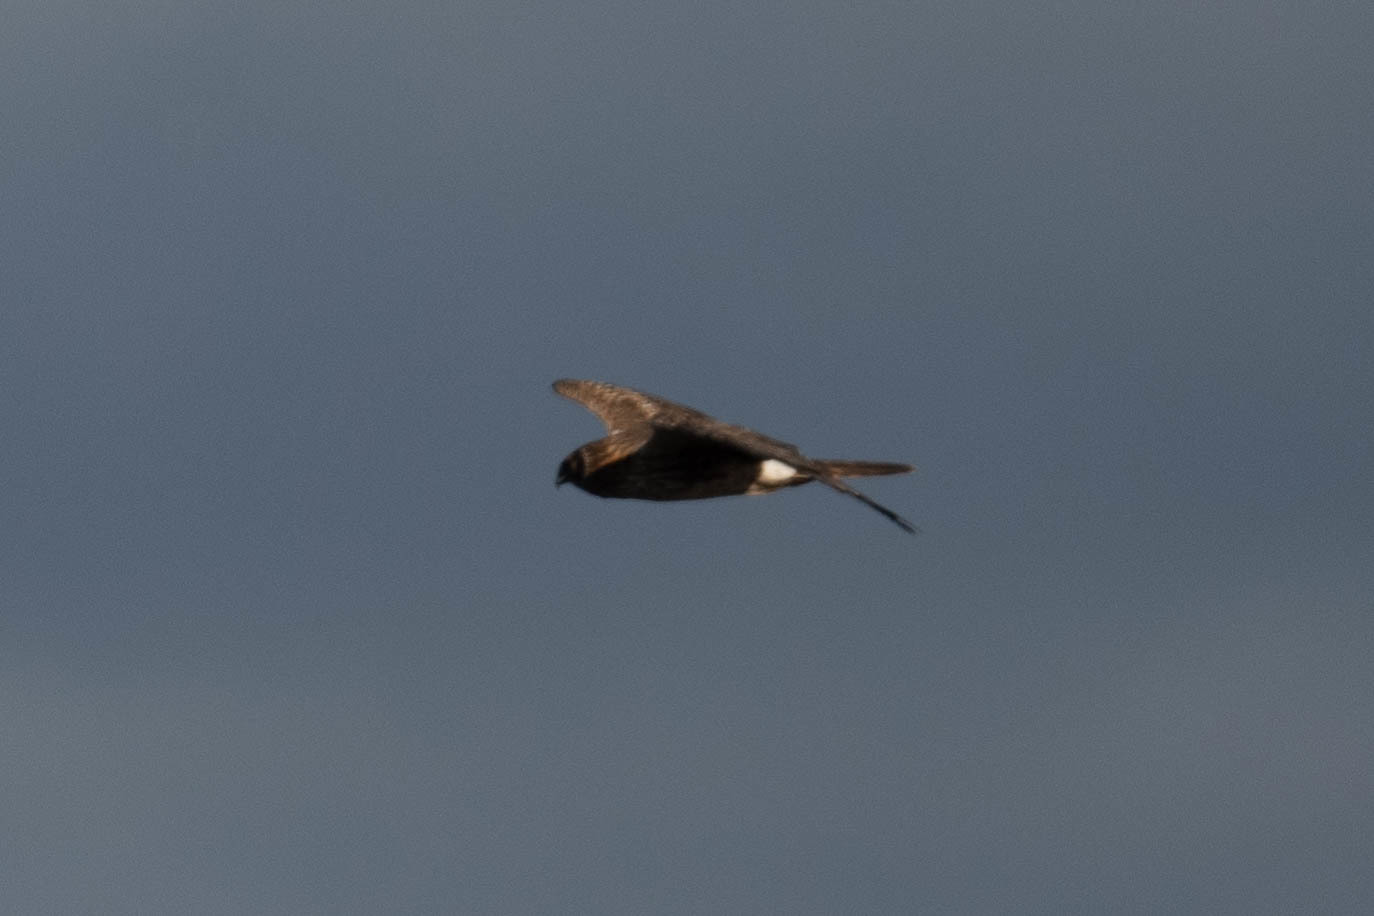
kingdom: Animalia
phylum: Chordata
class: Aves
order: Accipitriformes
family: Accipitridae
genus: Circus
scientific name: Circus cyaneus
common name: Hen harrier
